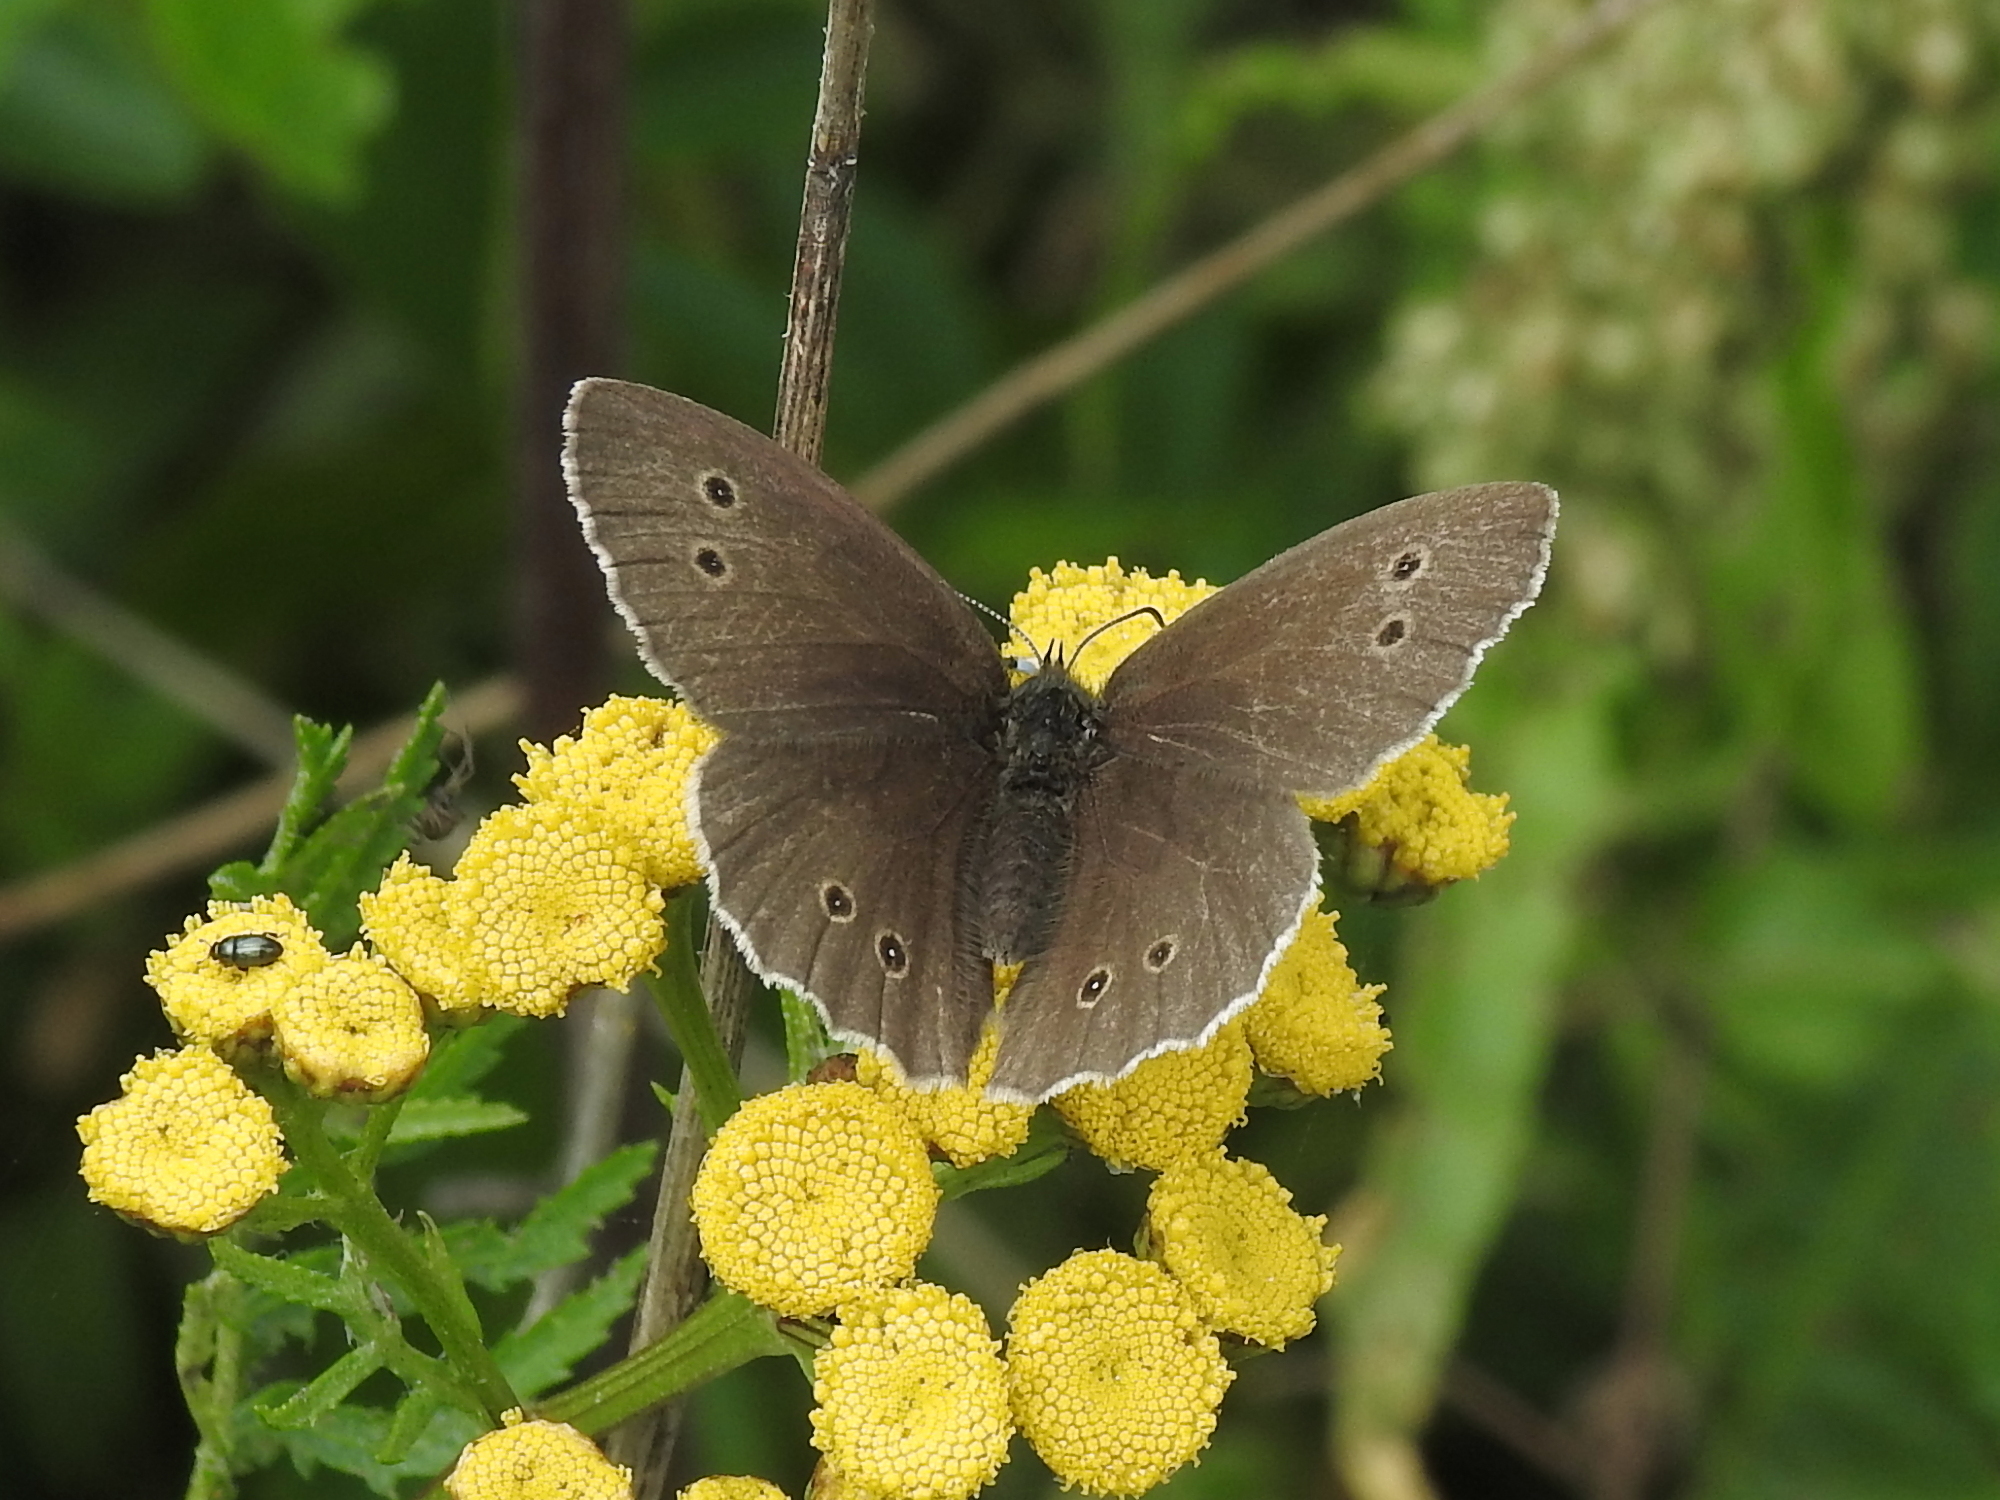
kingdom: Animalia
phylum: Arthropoda
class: Insecta
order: Lepidoptera
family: Nymphalidae
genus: Aphantopus
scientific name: Aphantopus hyperantus
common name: Ringlet
